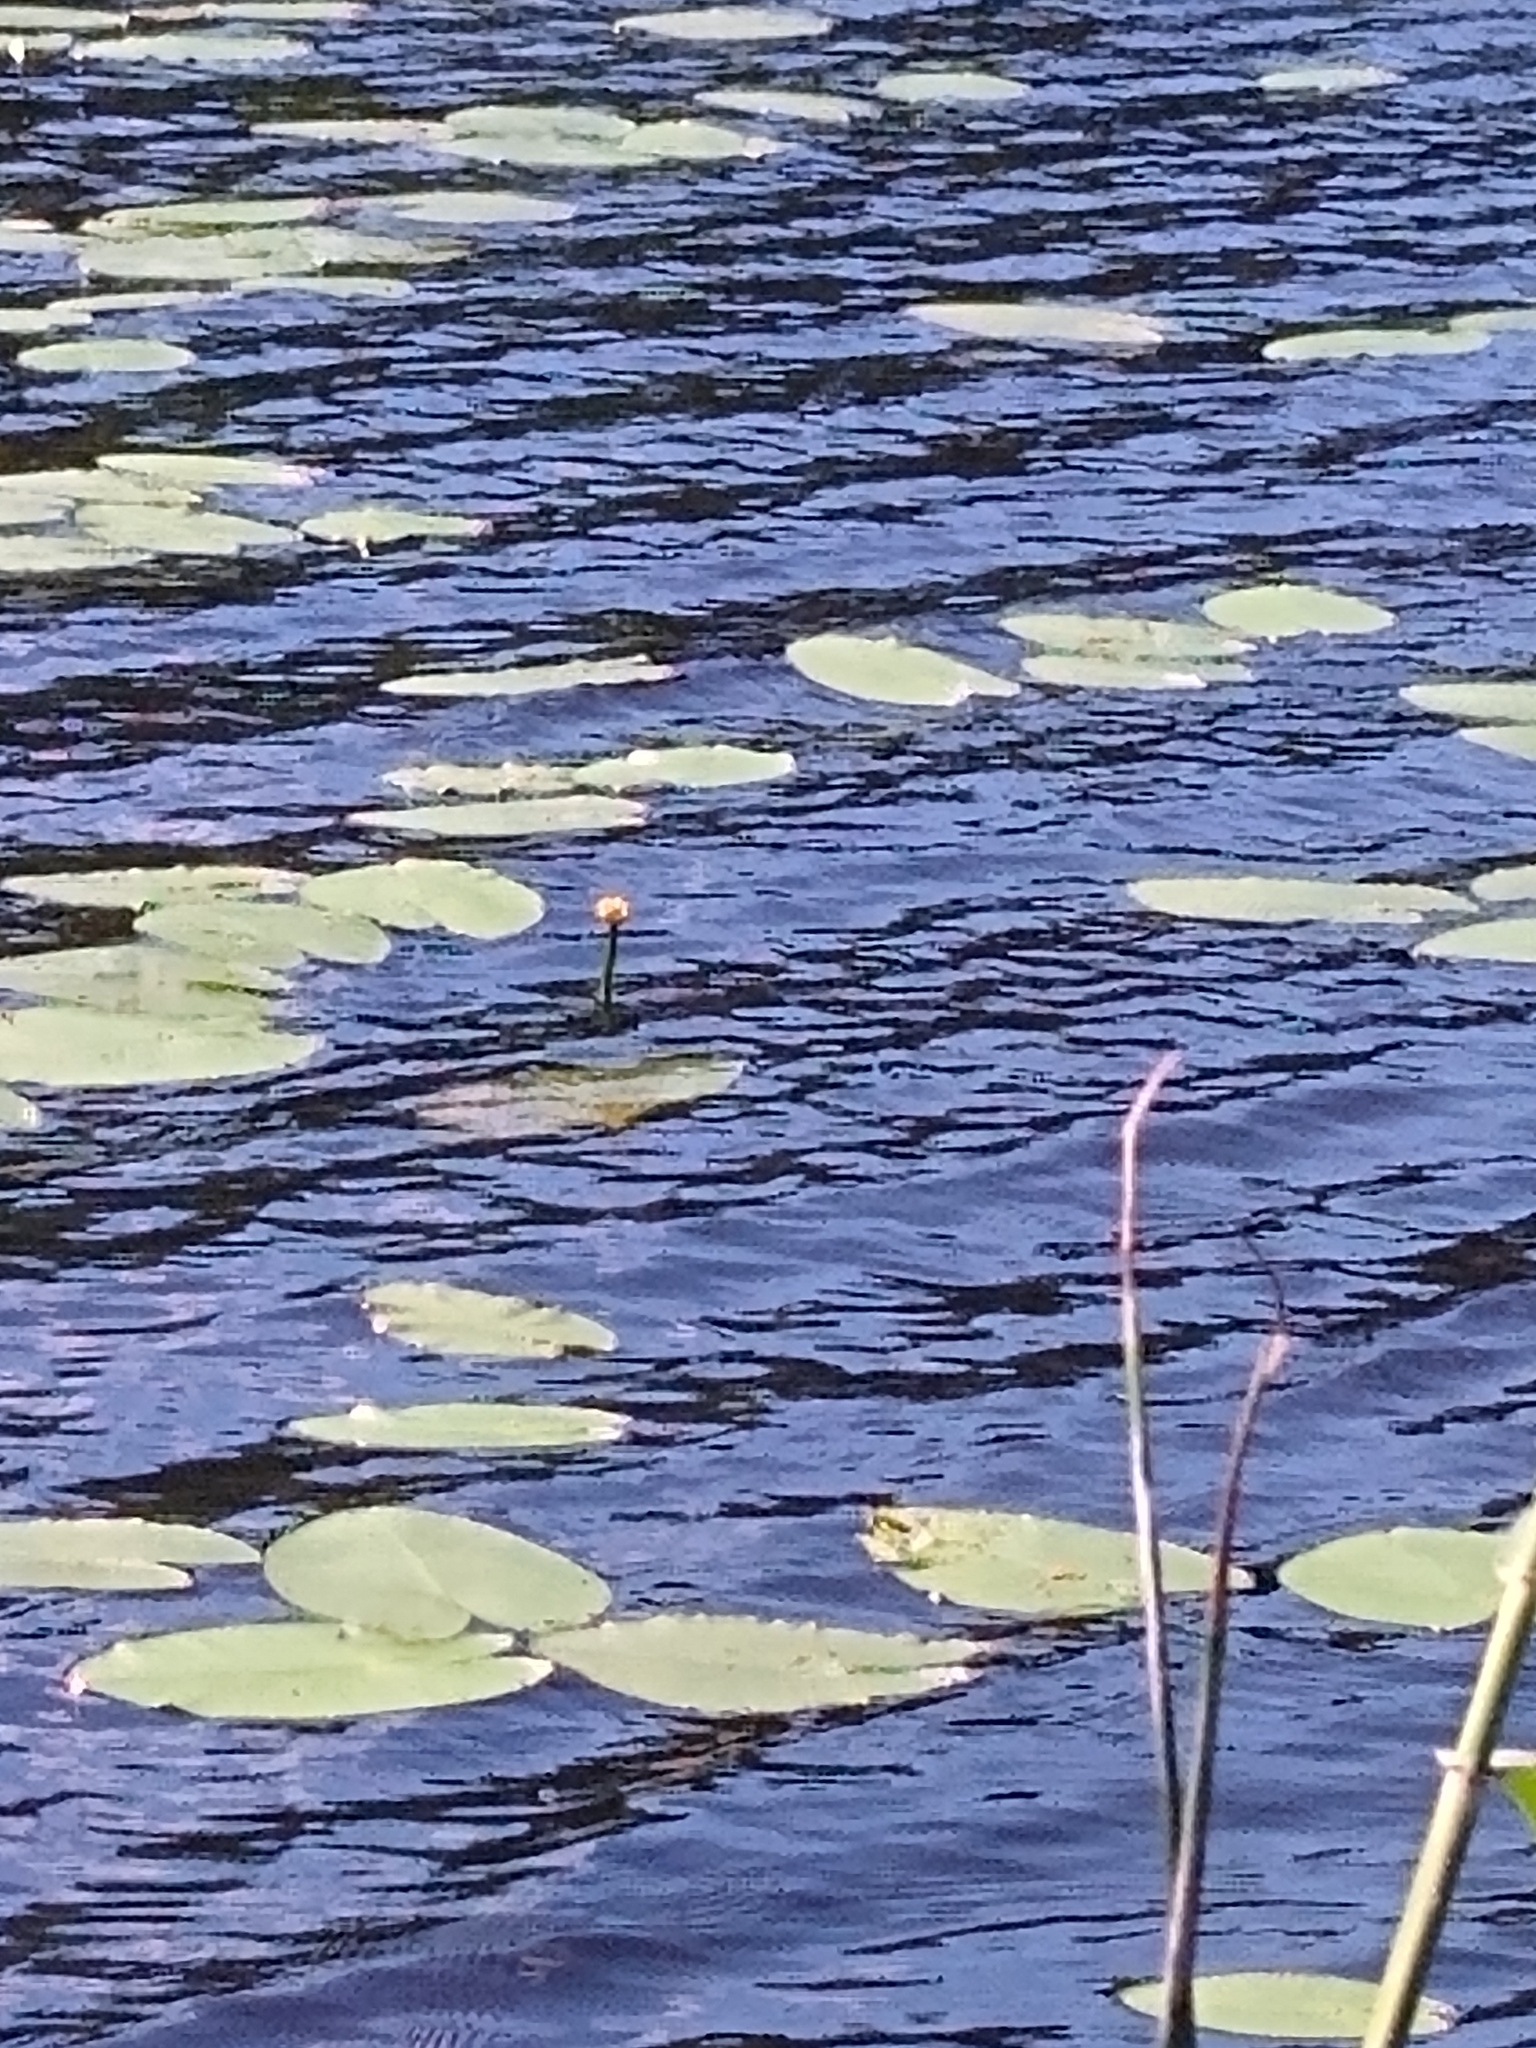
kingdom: Plantae
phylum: Tracheophyta
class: Magnoliopsida
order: Nymphaeales
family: Nymphaeaceae
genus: Nuphar
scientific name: Nuphar lutea
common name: Yellow water-lily
